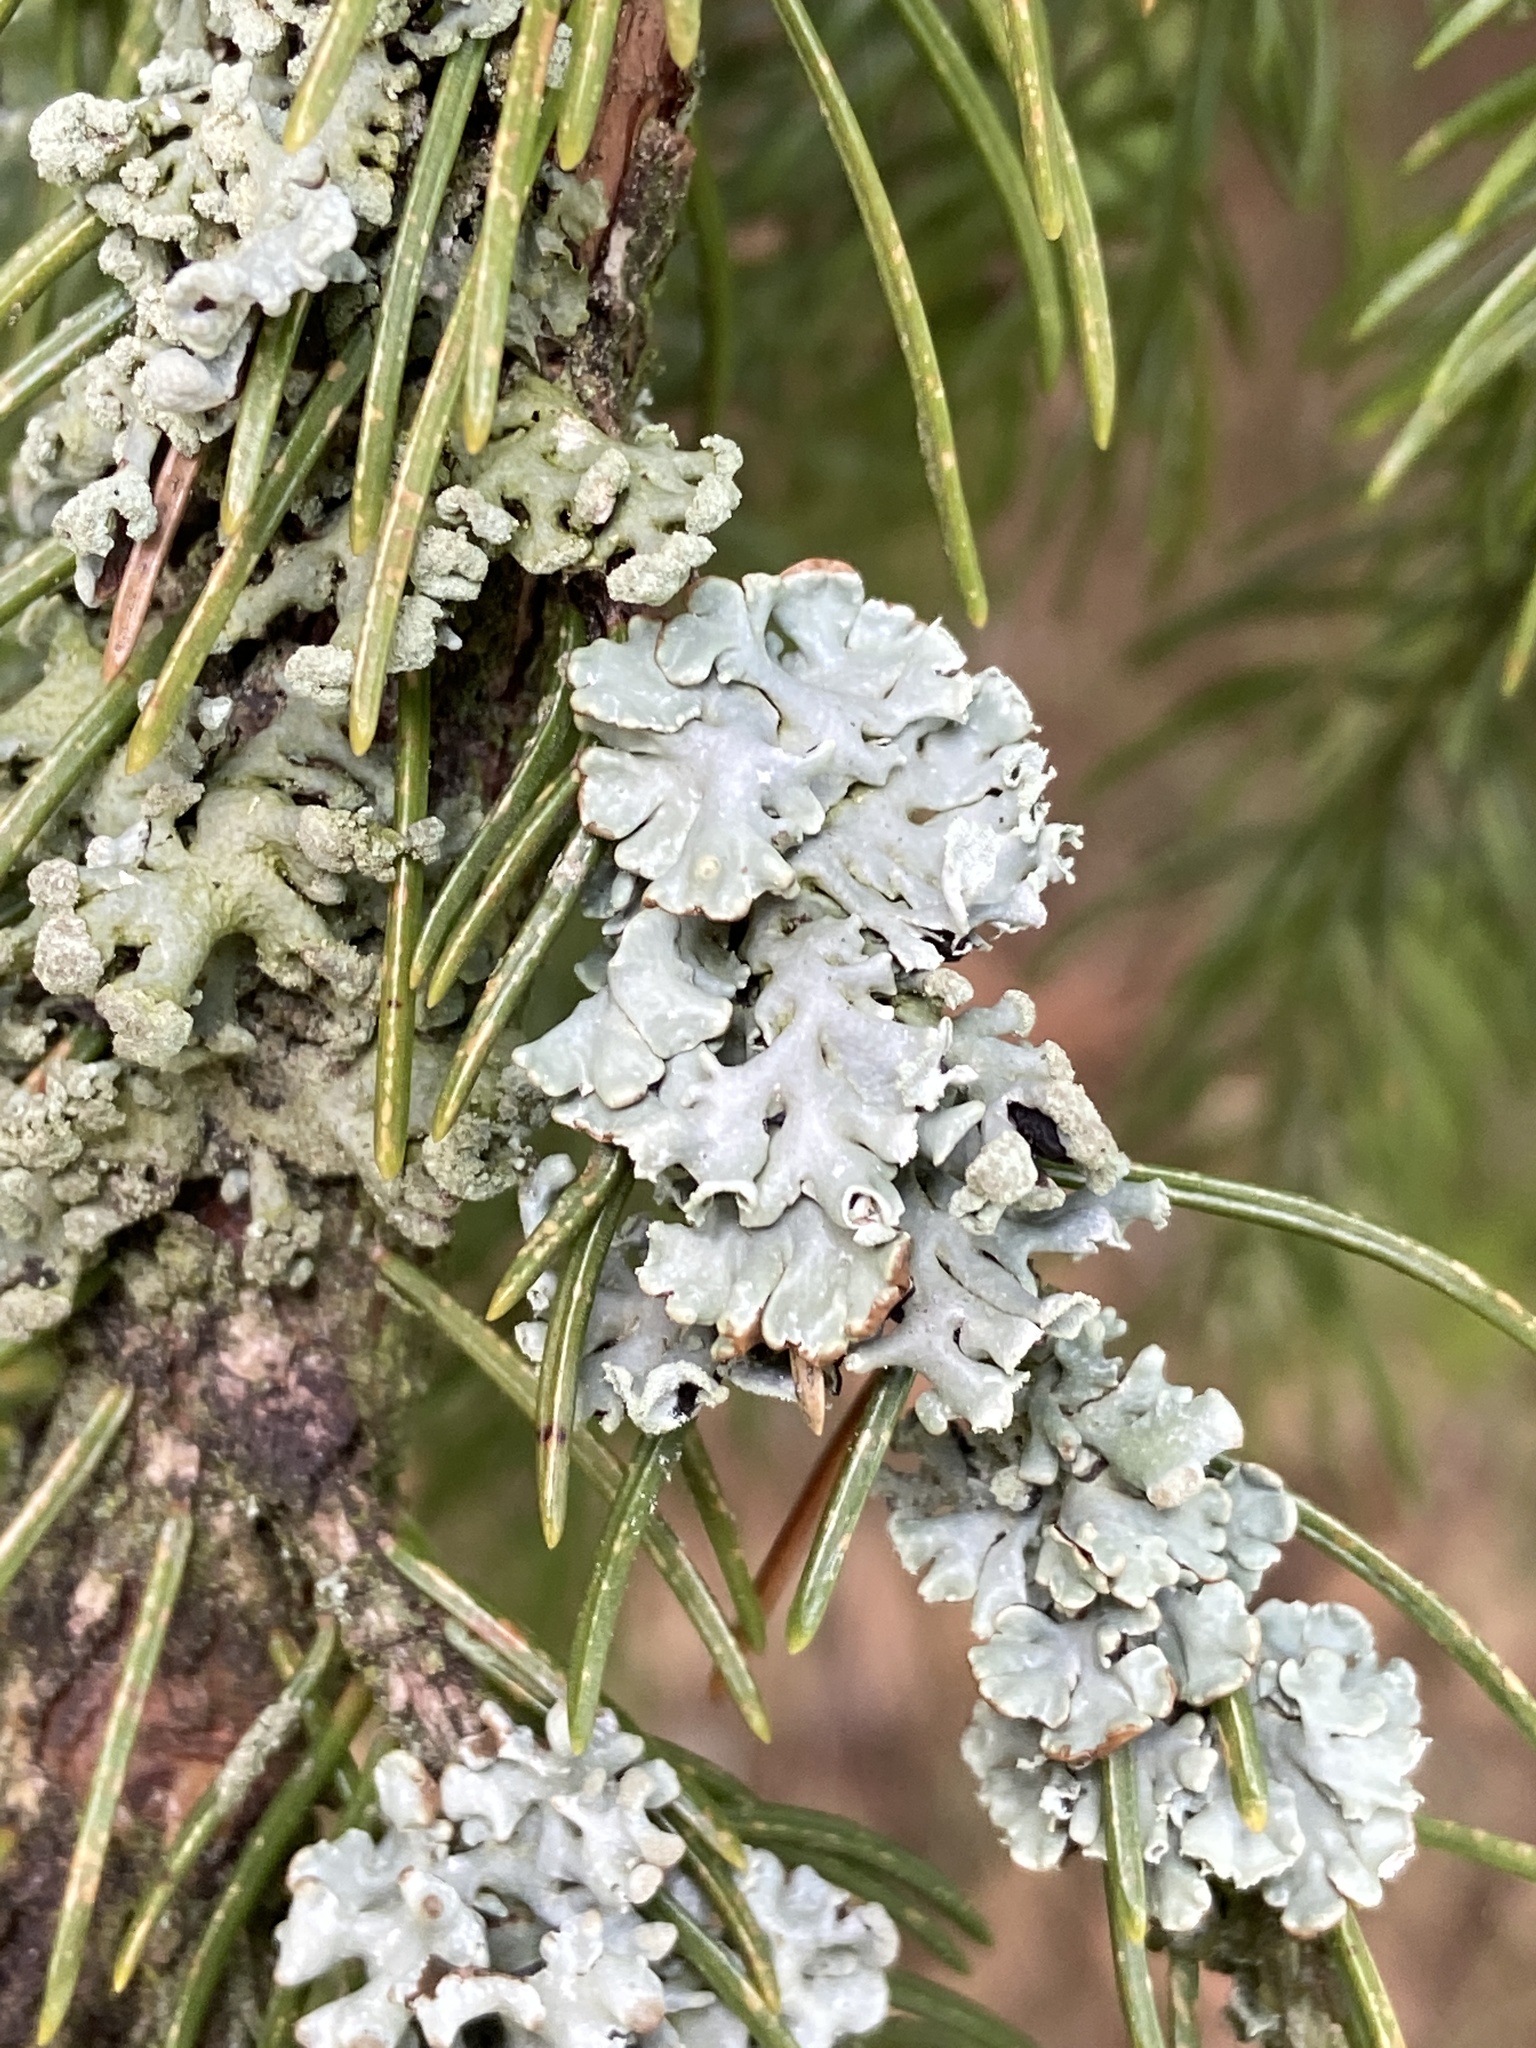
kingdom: Fungi
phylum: Ascomycota
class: Lecanoromycetes
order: Lecanorales
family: Parmeliaceae
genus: Hypogymnia
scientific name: Hypogymnia physodes
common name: Dark crottle
